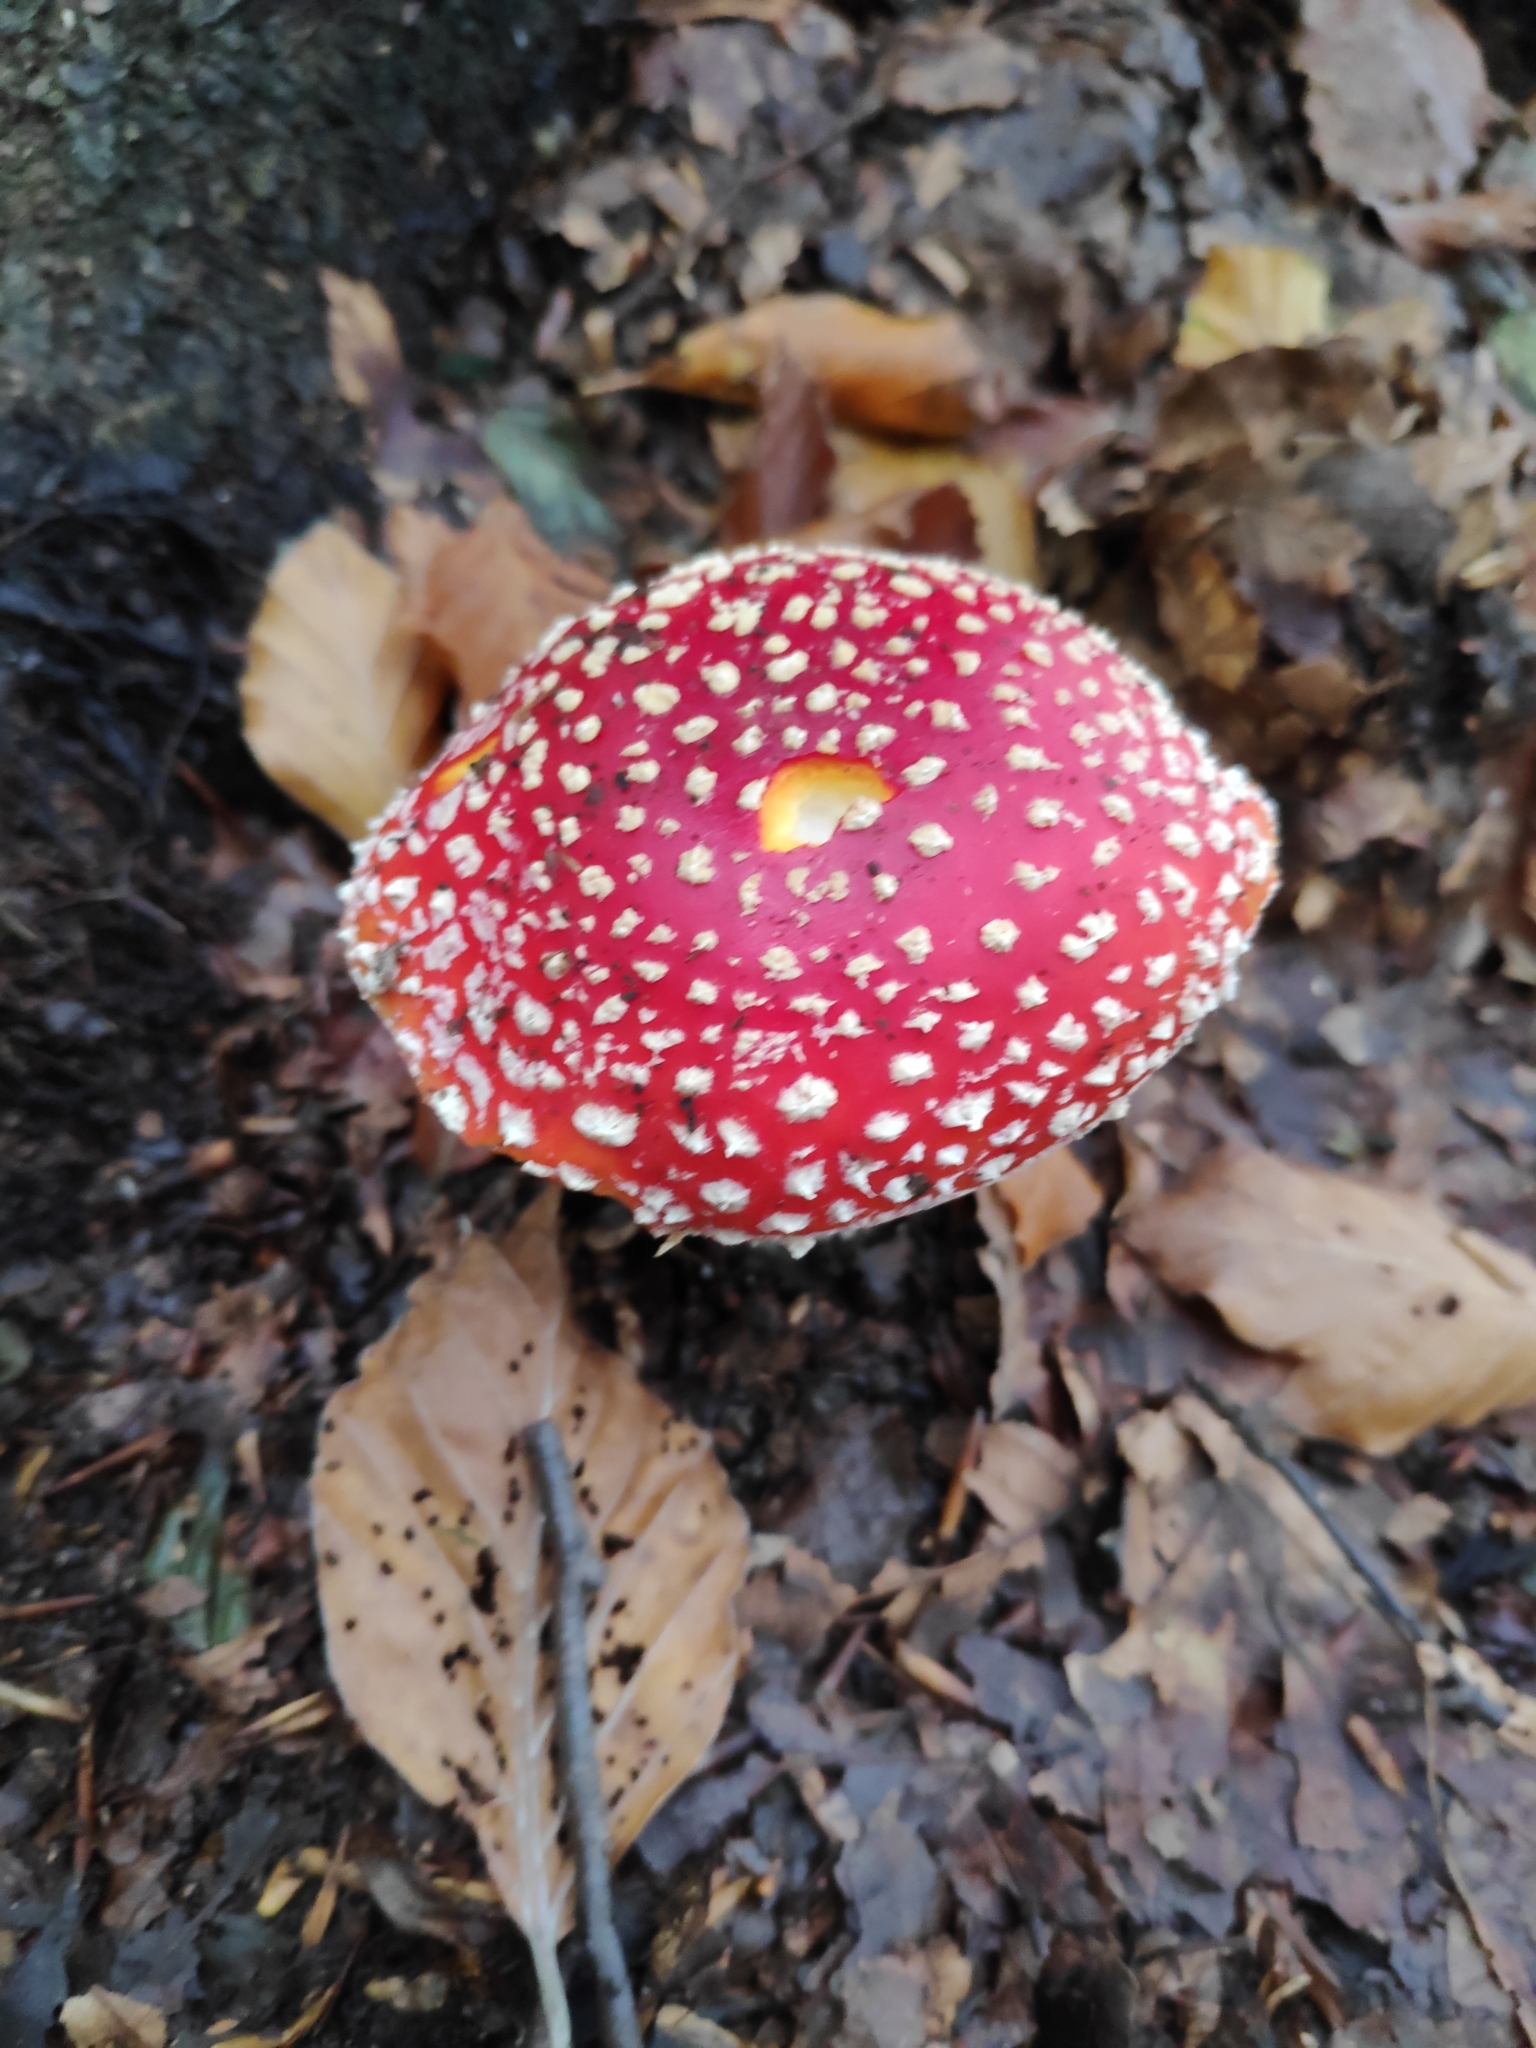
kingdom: Fungi
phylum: Basidiomycota
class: Agaricomycetes
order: Agaricales
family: Amanitaceae
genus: Amanita
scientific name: Amanita muscaria
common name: Fly agaric
